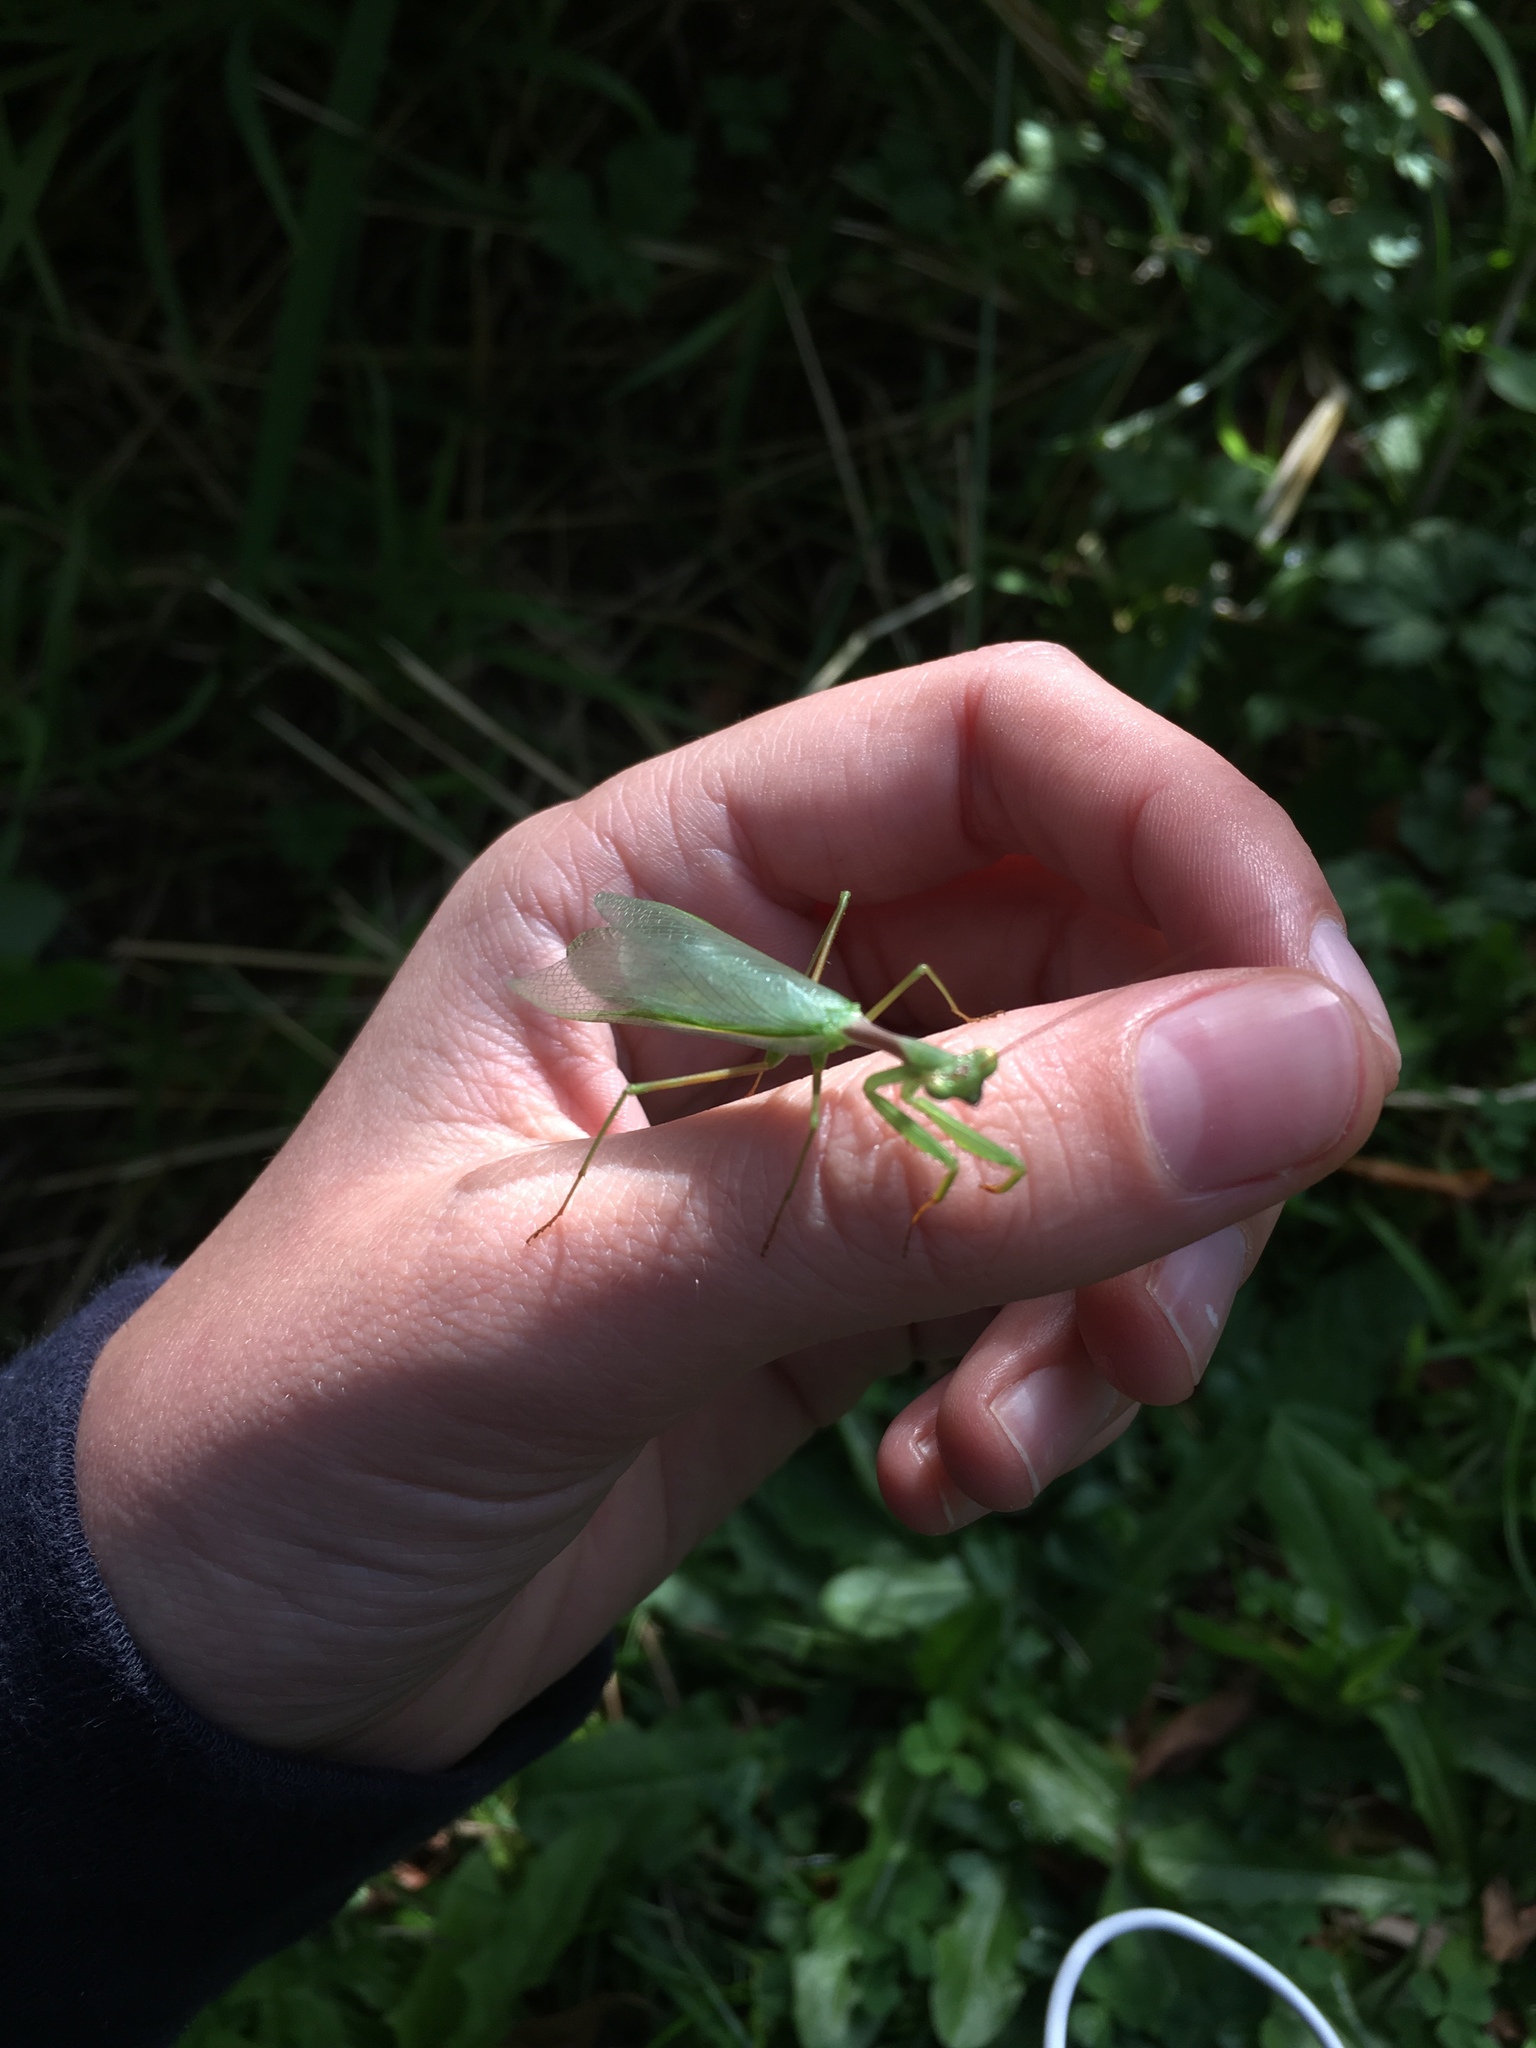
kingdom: Animalia
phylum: Arthropoda
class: Insecta
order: Mantodea
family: Miomantidae
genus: Miomantis
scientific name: Miomantis caffra
